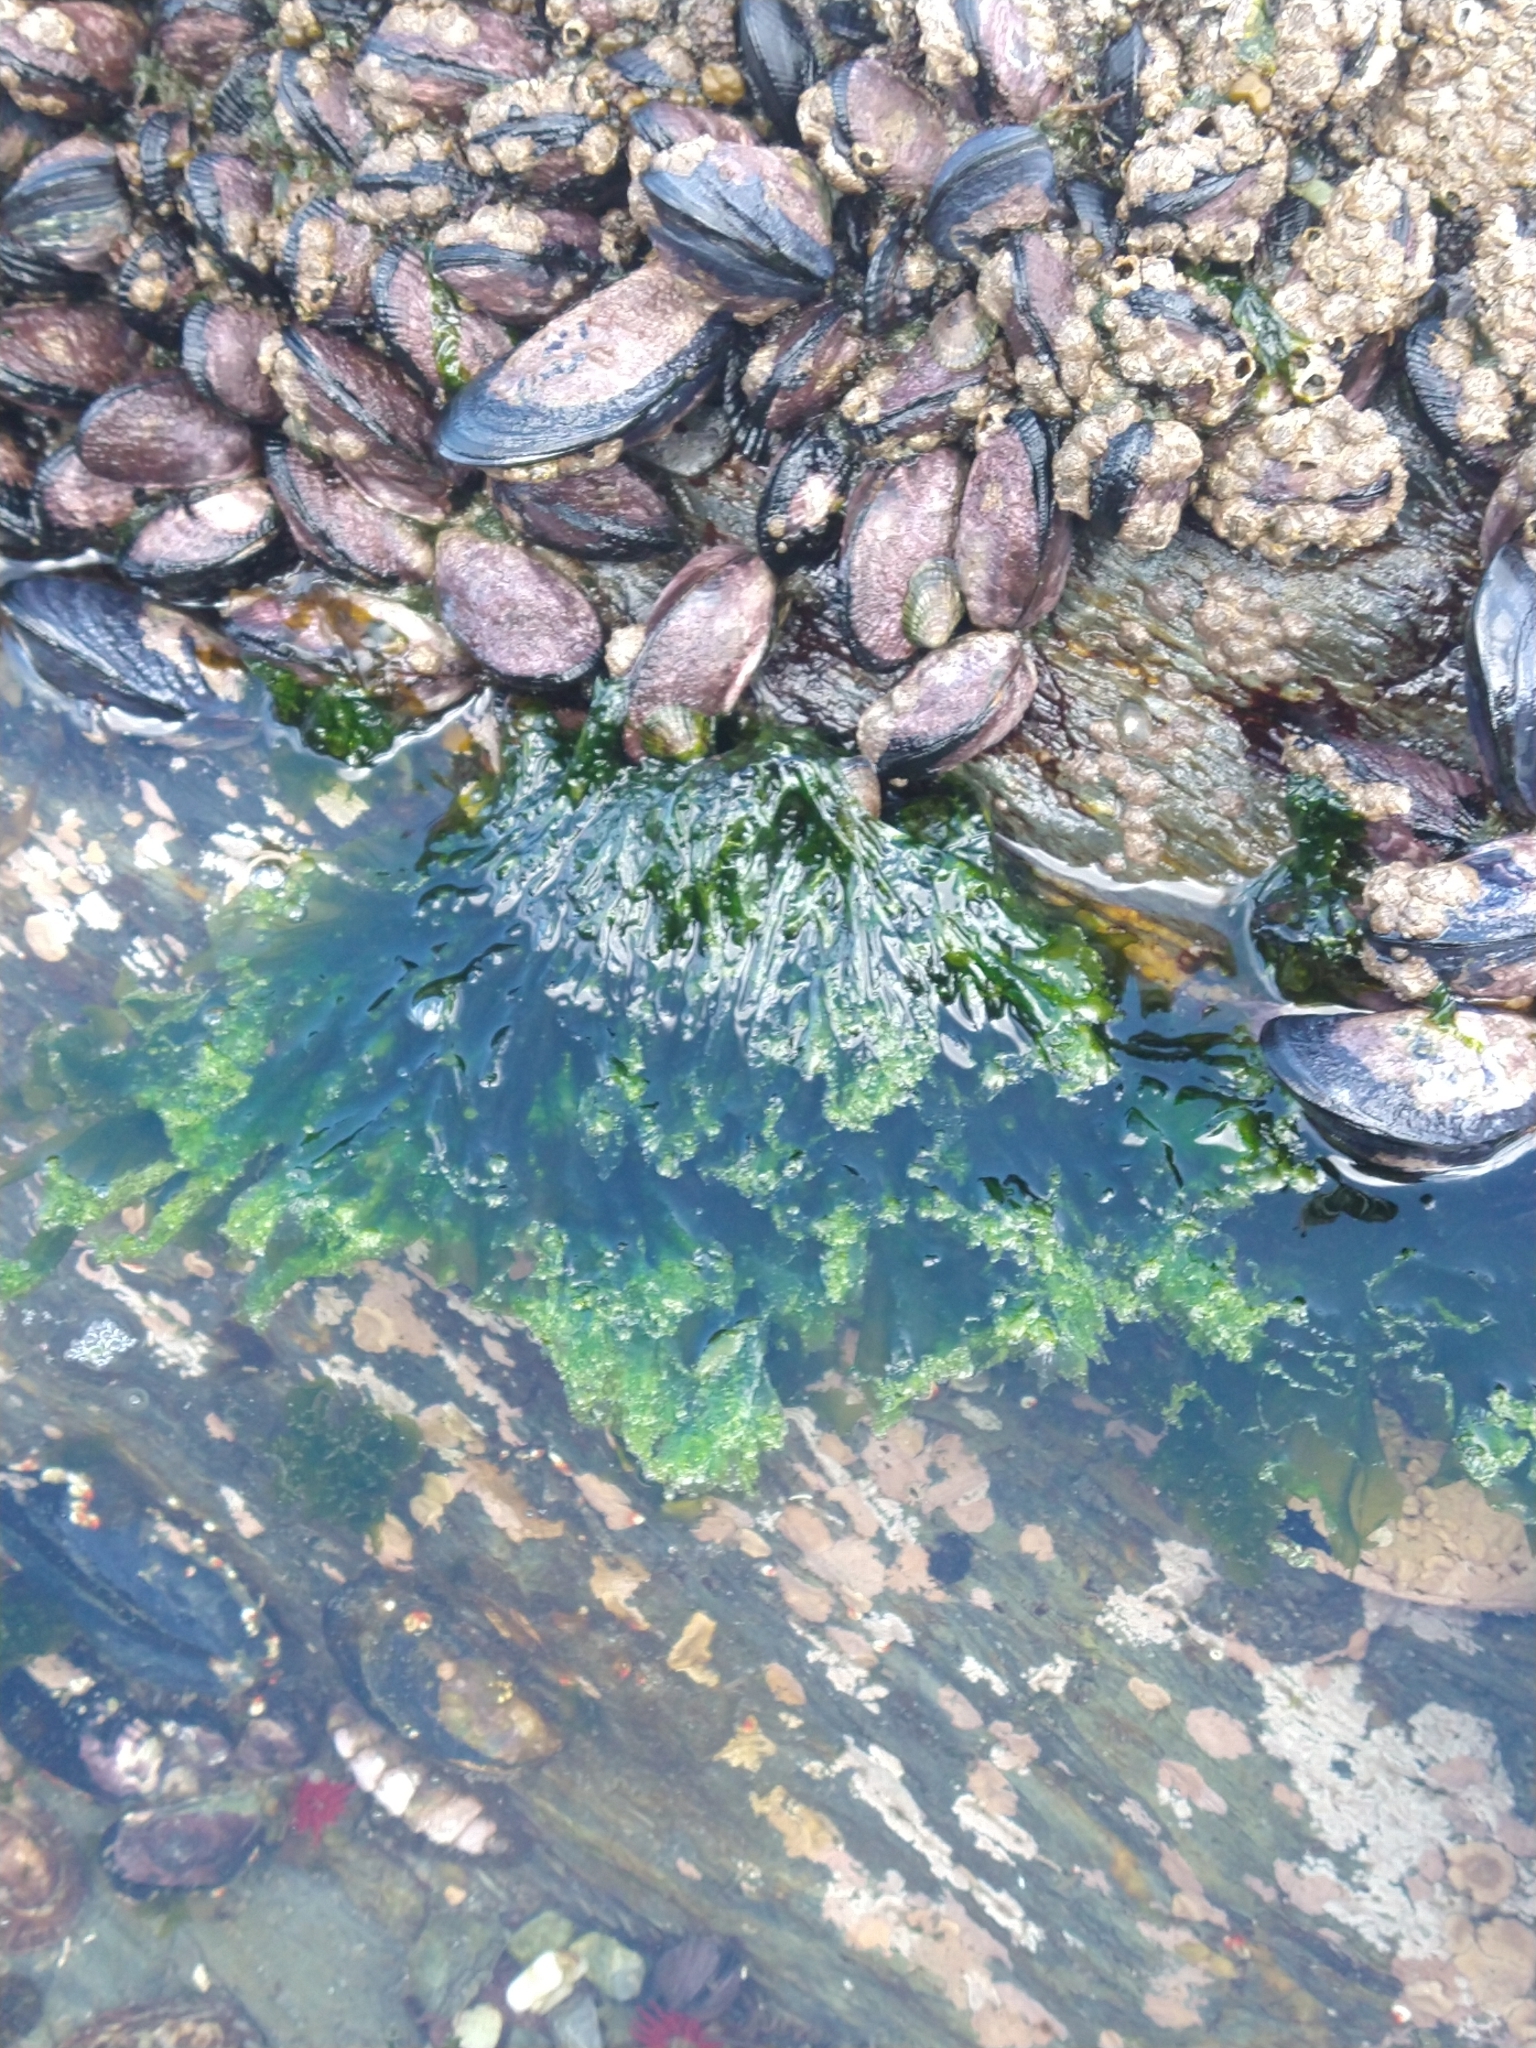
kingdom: Plantae
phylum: Chlorophyta
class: Ulvophyceae
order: Ulvales
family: Ulvaceae
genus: Ulva
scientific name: Ulva lactuca
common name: Sea lettuce
